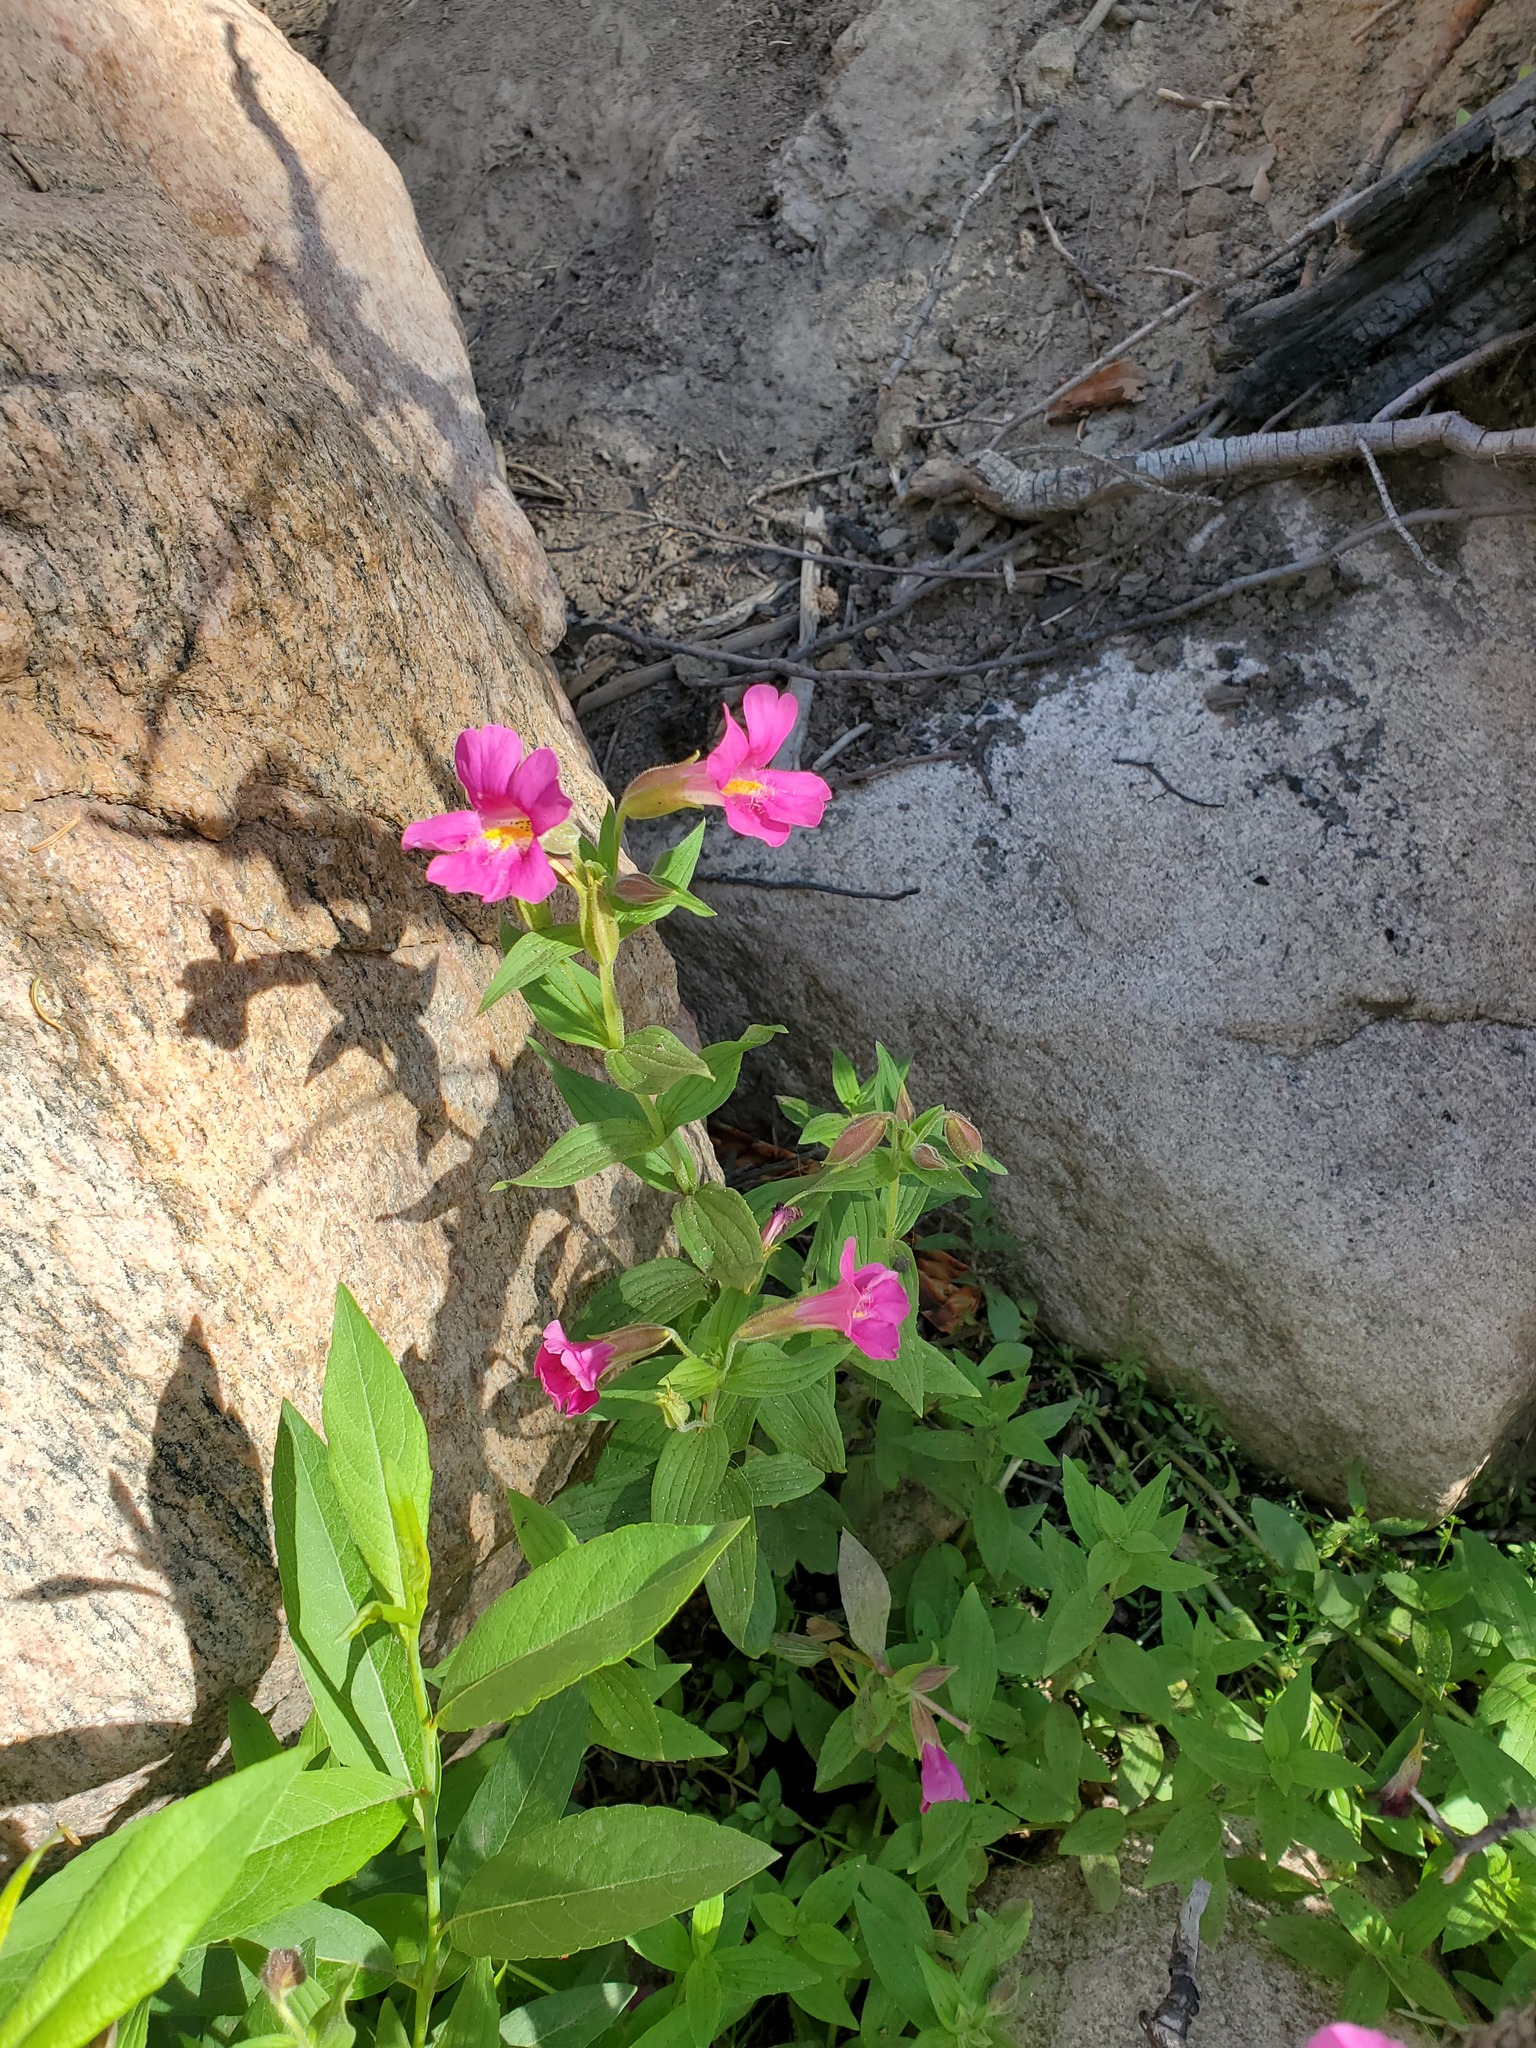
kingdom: Plantae
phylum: Tracheophyta
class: Magnoliopsida
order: Lamiales
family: Phrymaceae
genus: Erythranthe
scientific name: Erythranthe lewisii
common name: Lewis's monkey-flower
